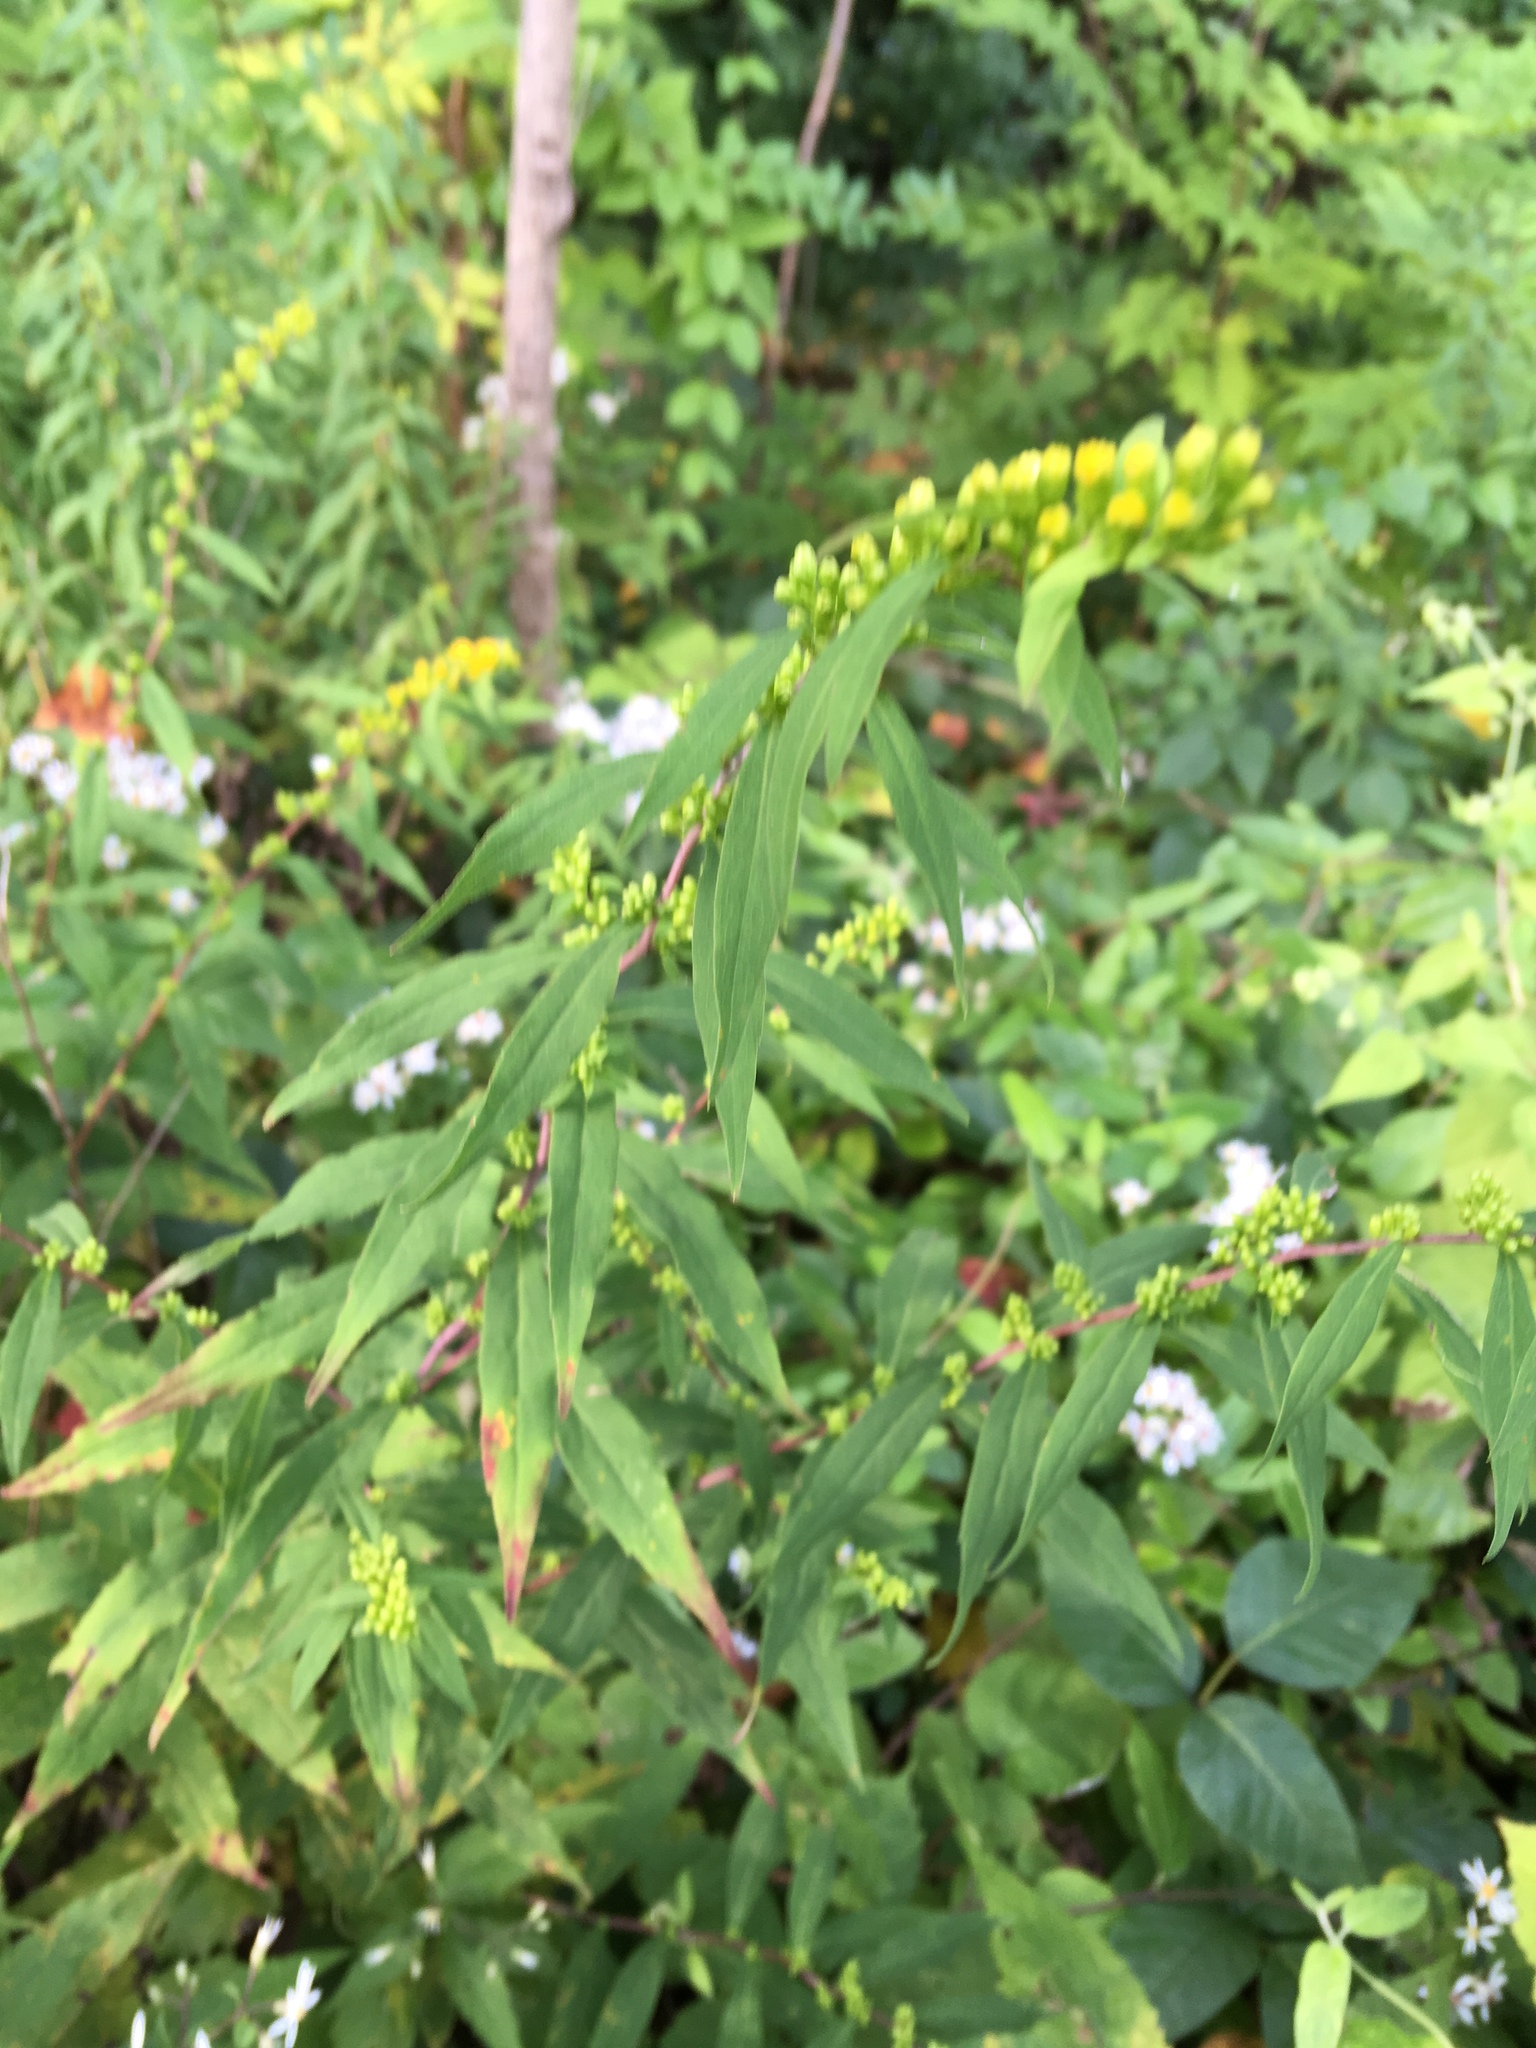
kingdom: Plantae
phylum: Tracheophyta
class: Magnoliopsida
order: Asterales
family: Asteraceae
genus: Solidago
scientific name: Solidago caesia
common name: Woodland goldenrod
